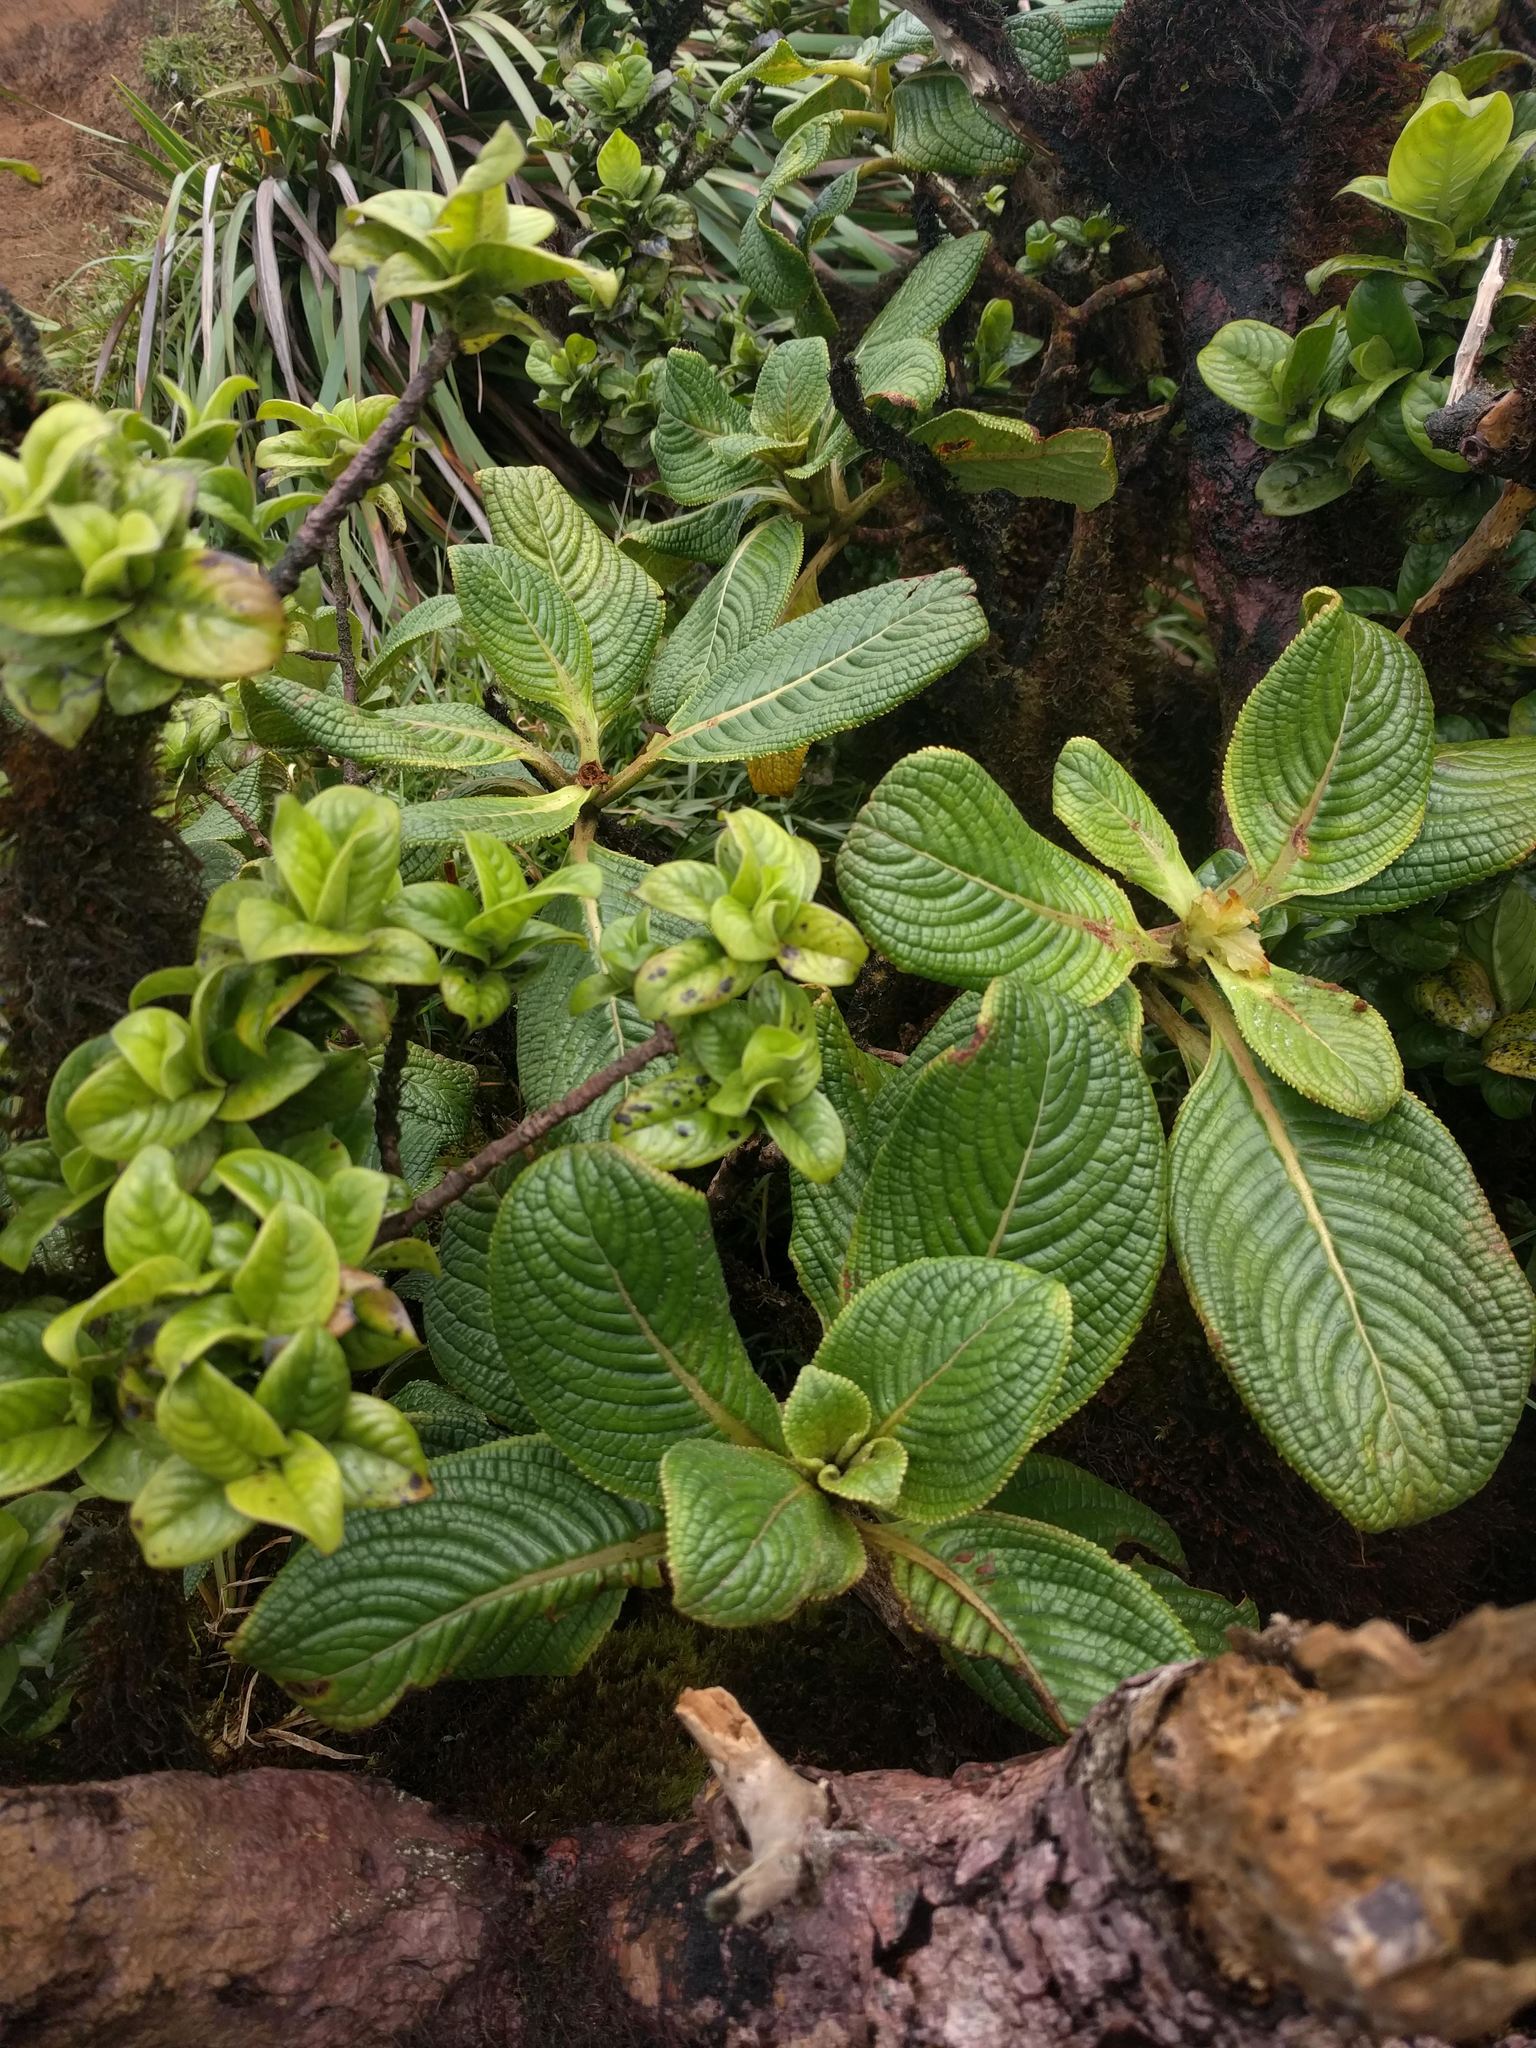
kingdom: Plantae
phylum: Tracheophyta
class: Magnoliopsida
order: Cornales
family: Hydrangeaceae
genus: Hydrangea
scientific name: Hydrangea arguta
